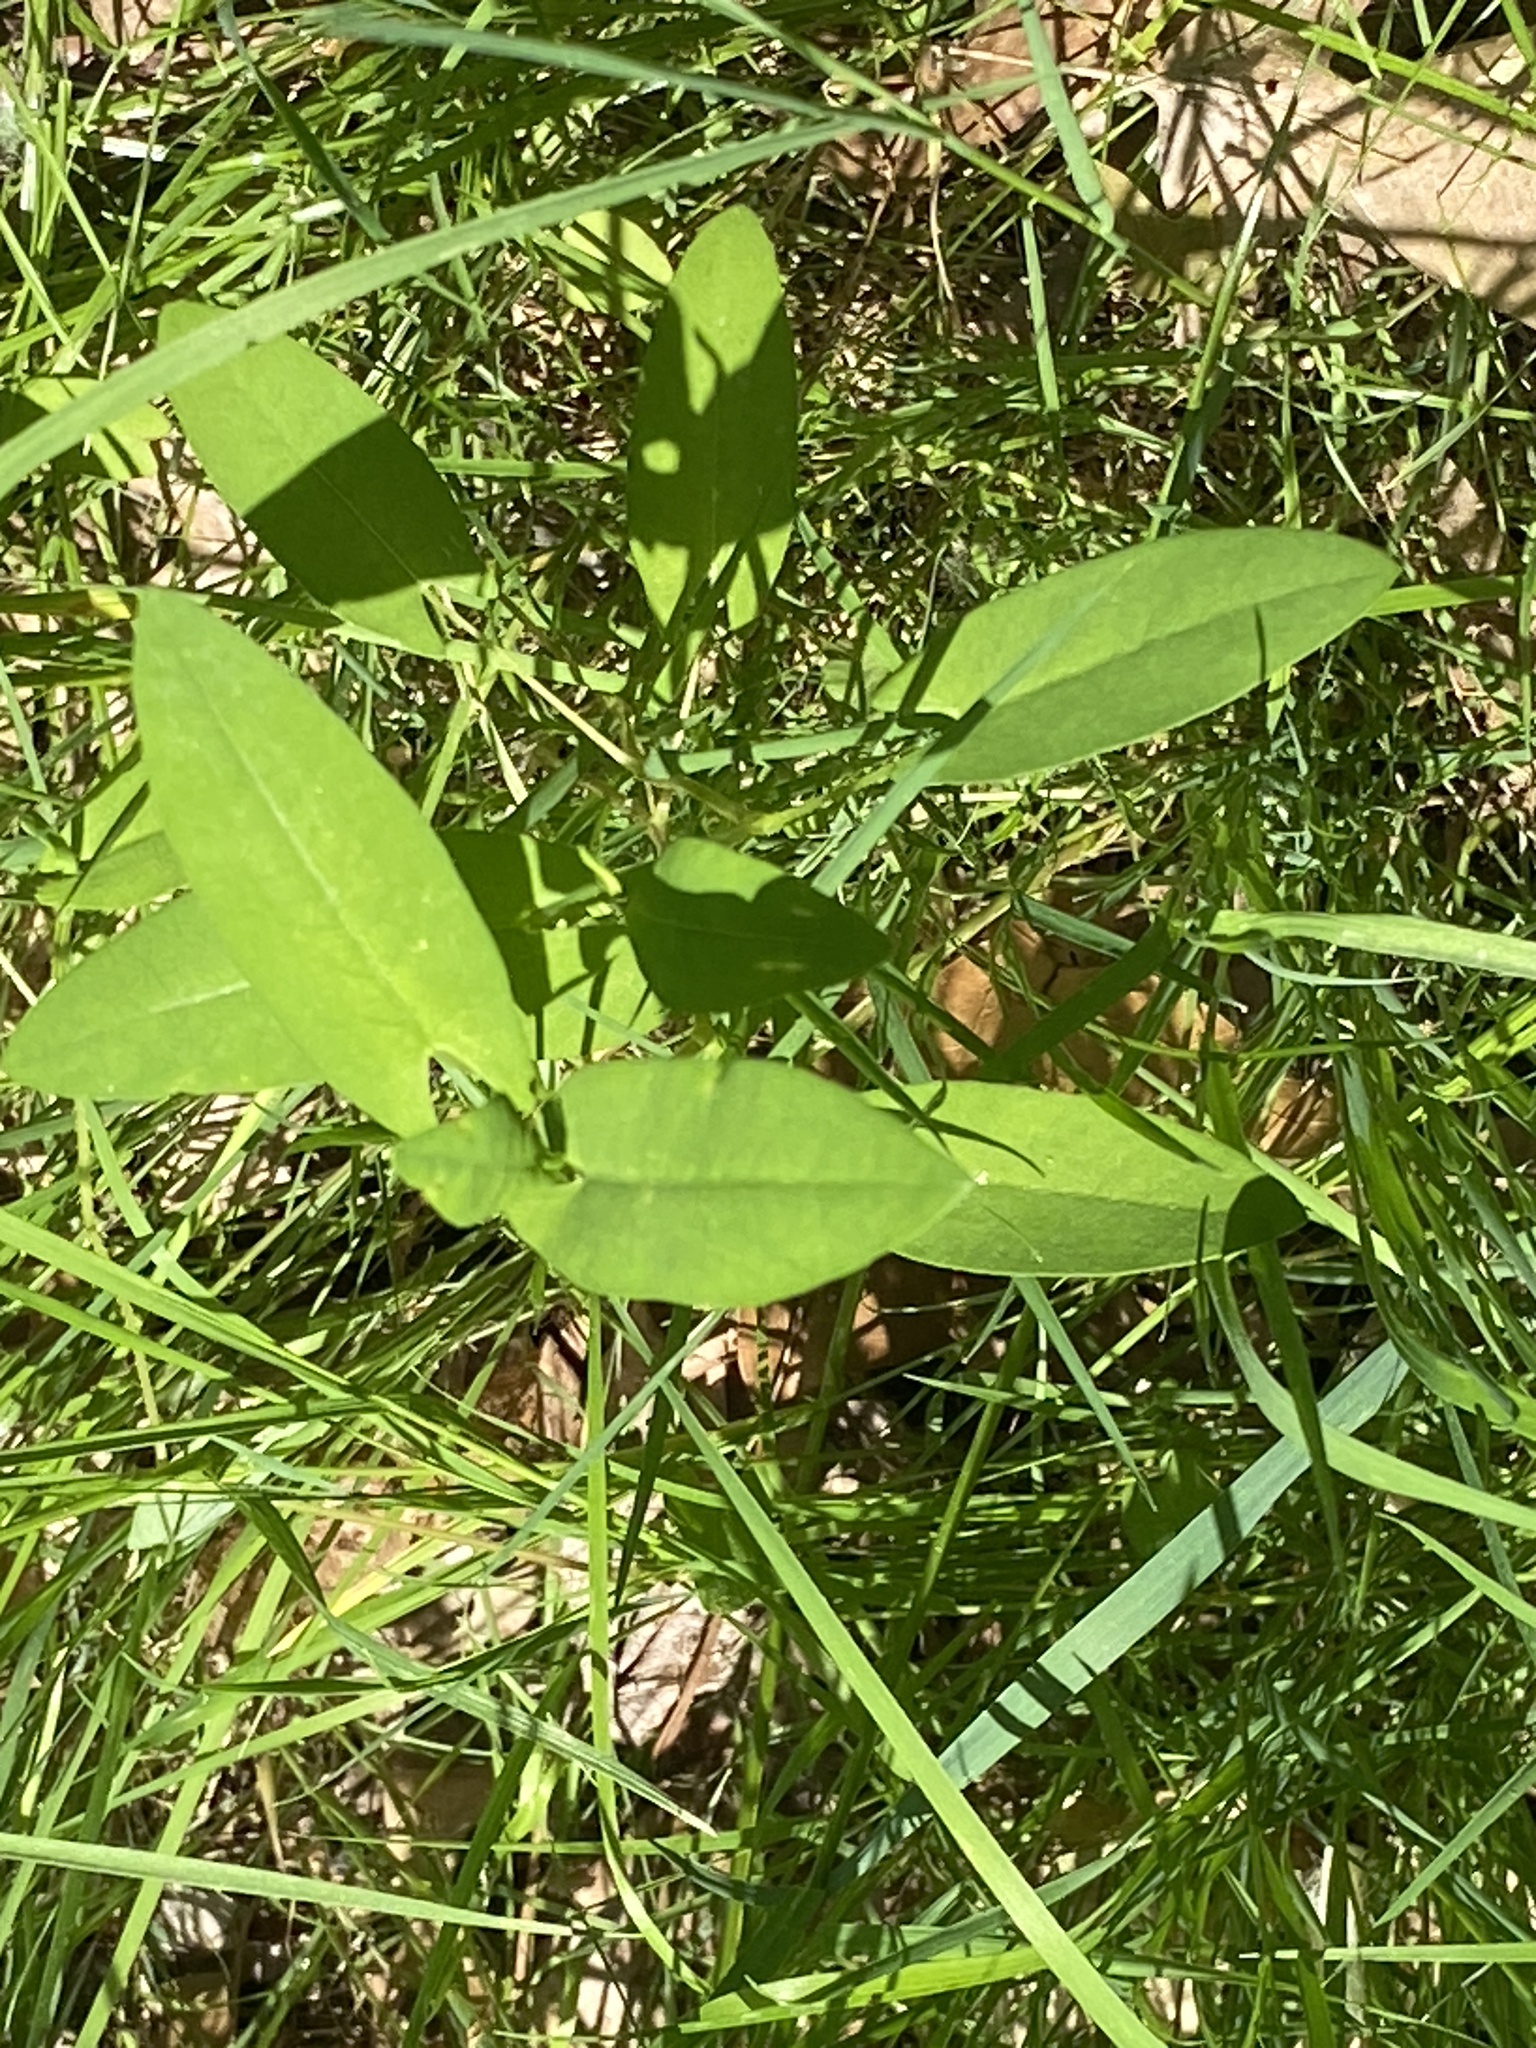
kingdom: Plantae
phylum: Tracheophyta
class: Magnoliopsida
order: Caryophyllales
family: Polygonaceae
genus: Persicaria
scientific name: Persicaria sagittata
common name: American tearthumb
